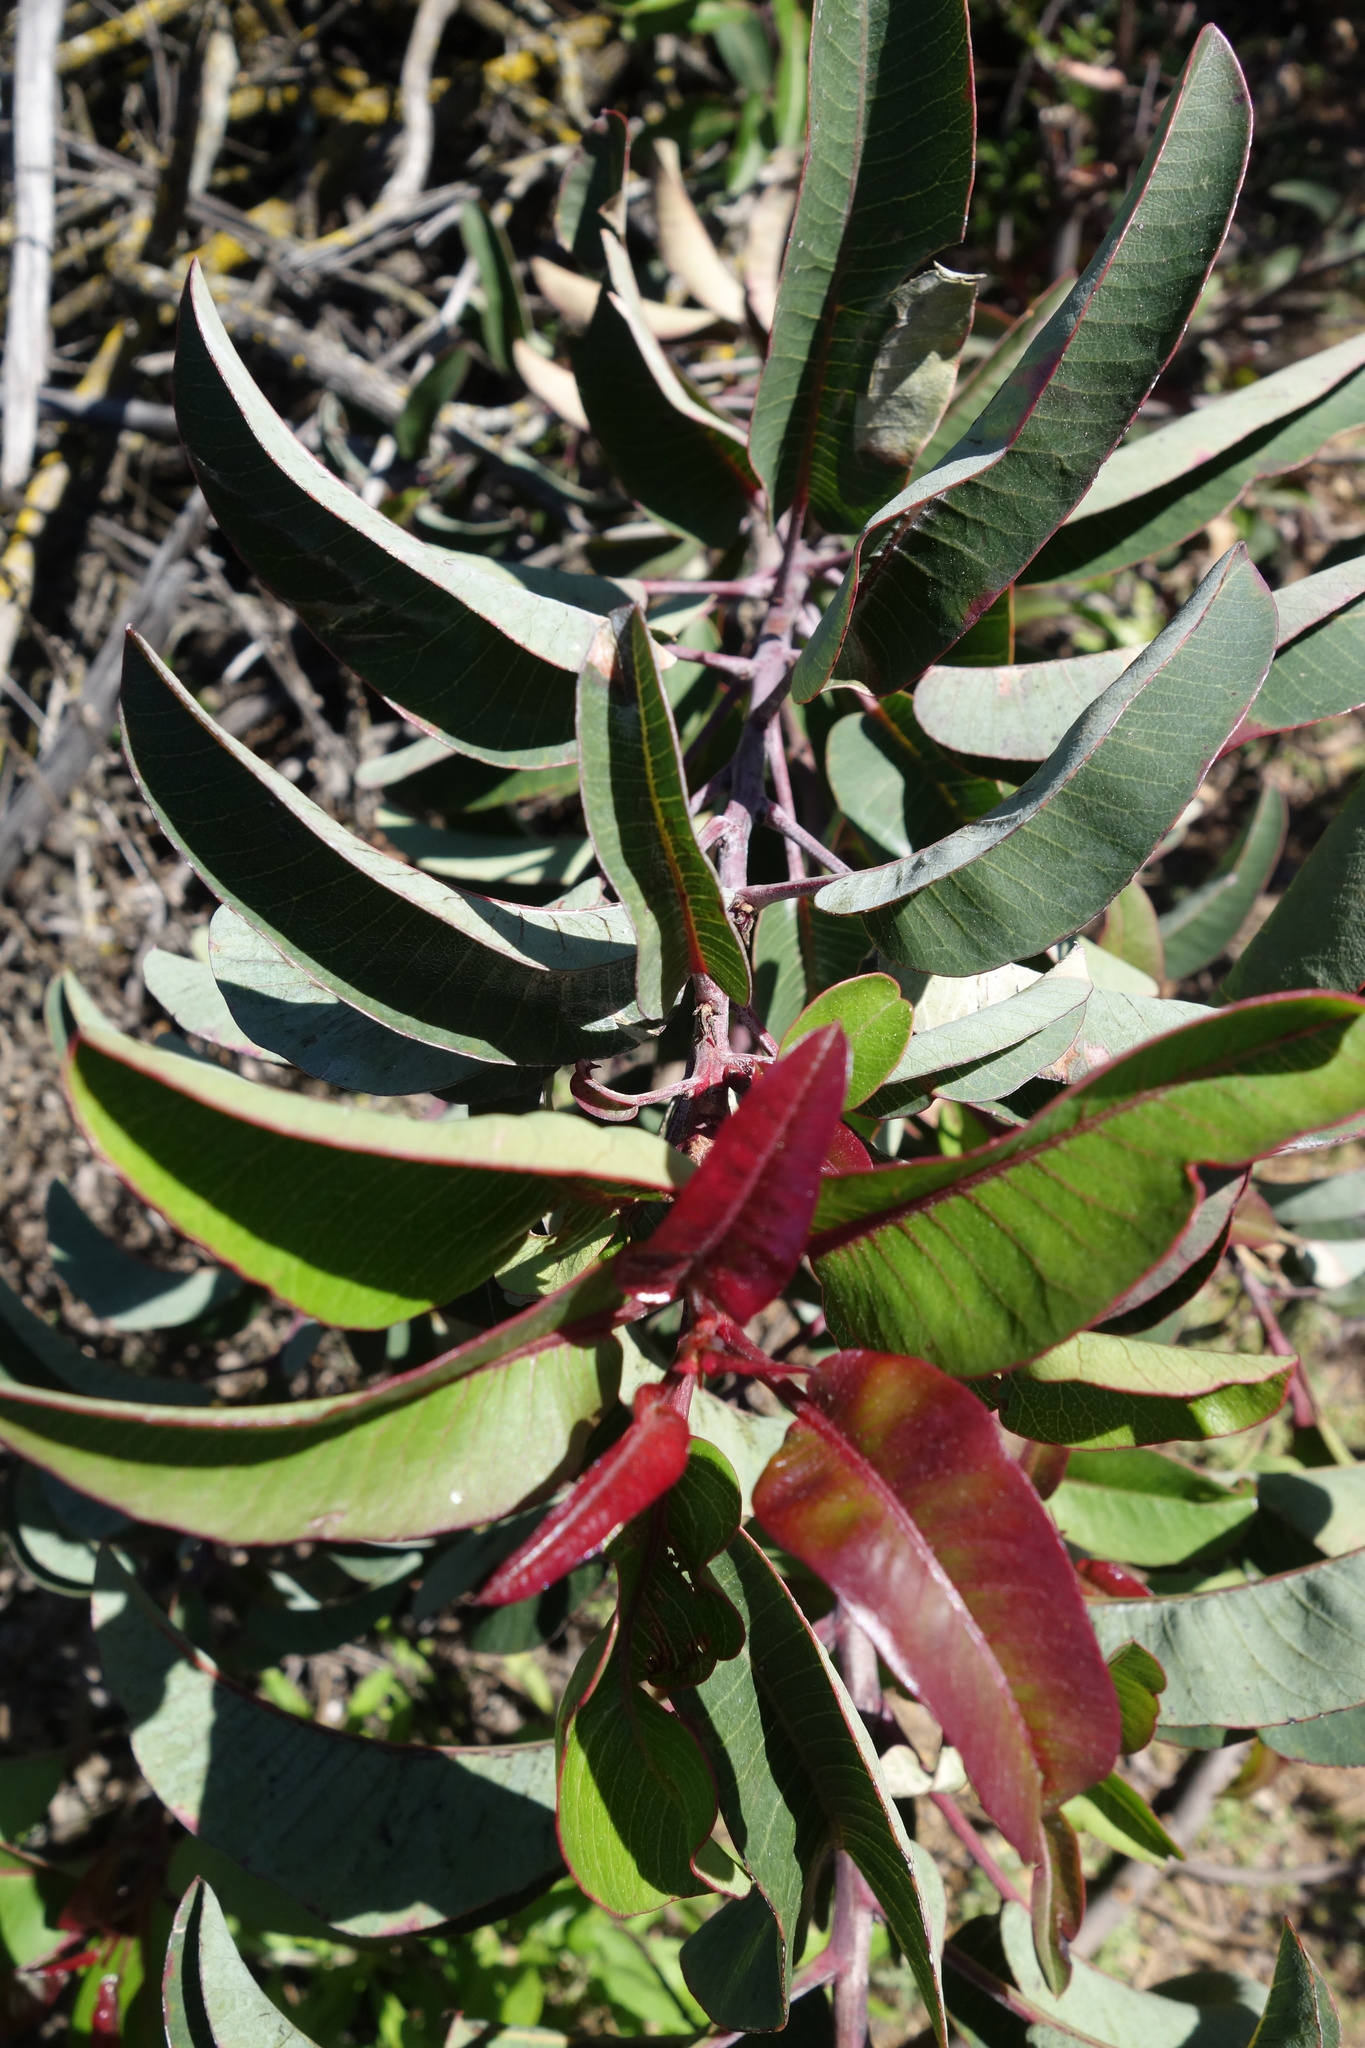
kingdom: Plantae
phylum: Tracheophyta
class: Magnoliopsida
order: Sapindales
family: Anacardiaceae
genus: Malosma
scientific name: Malosma laurina
